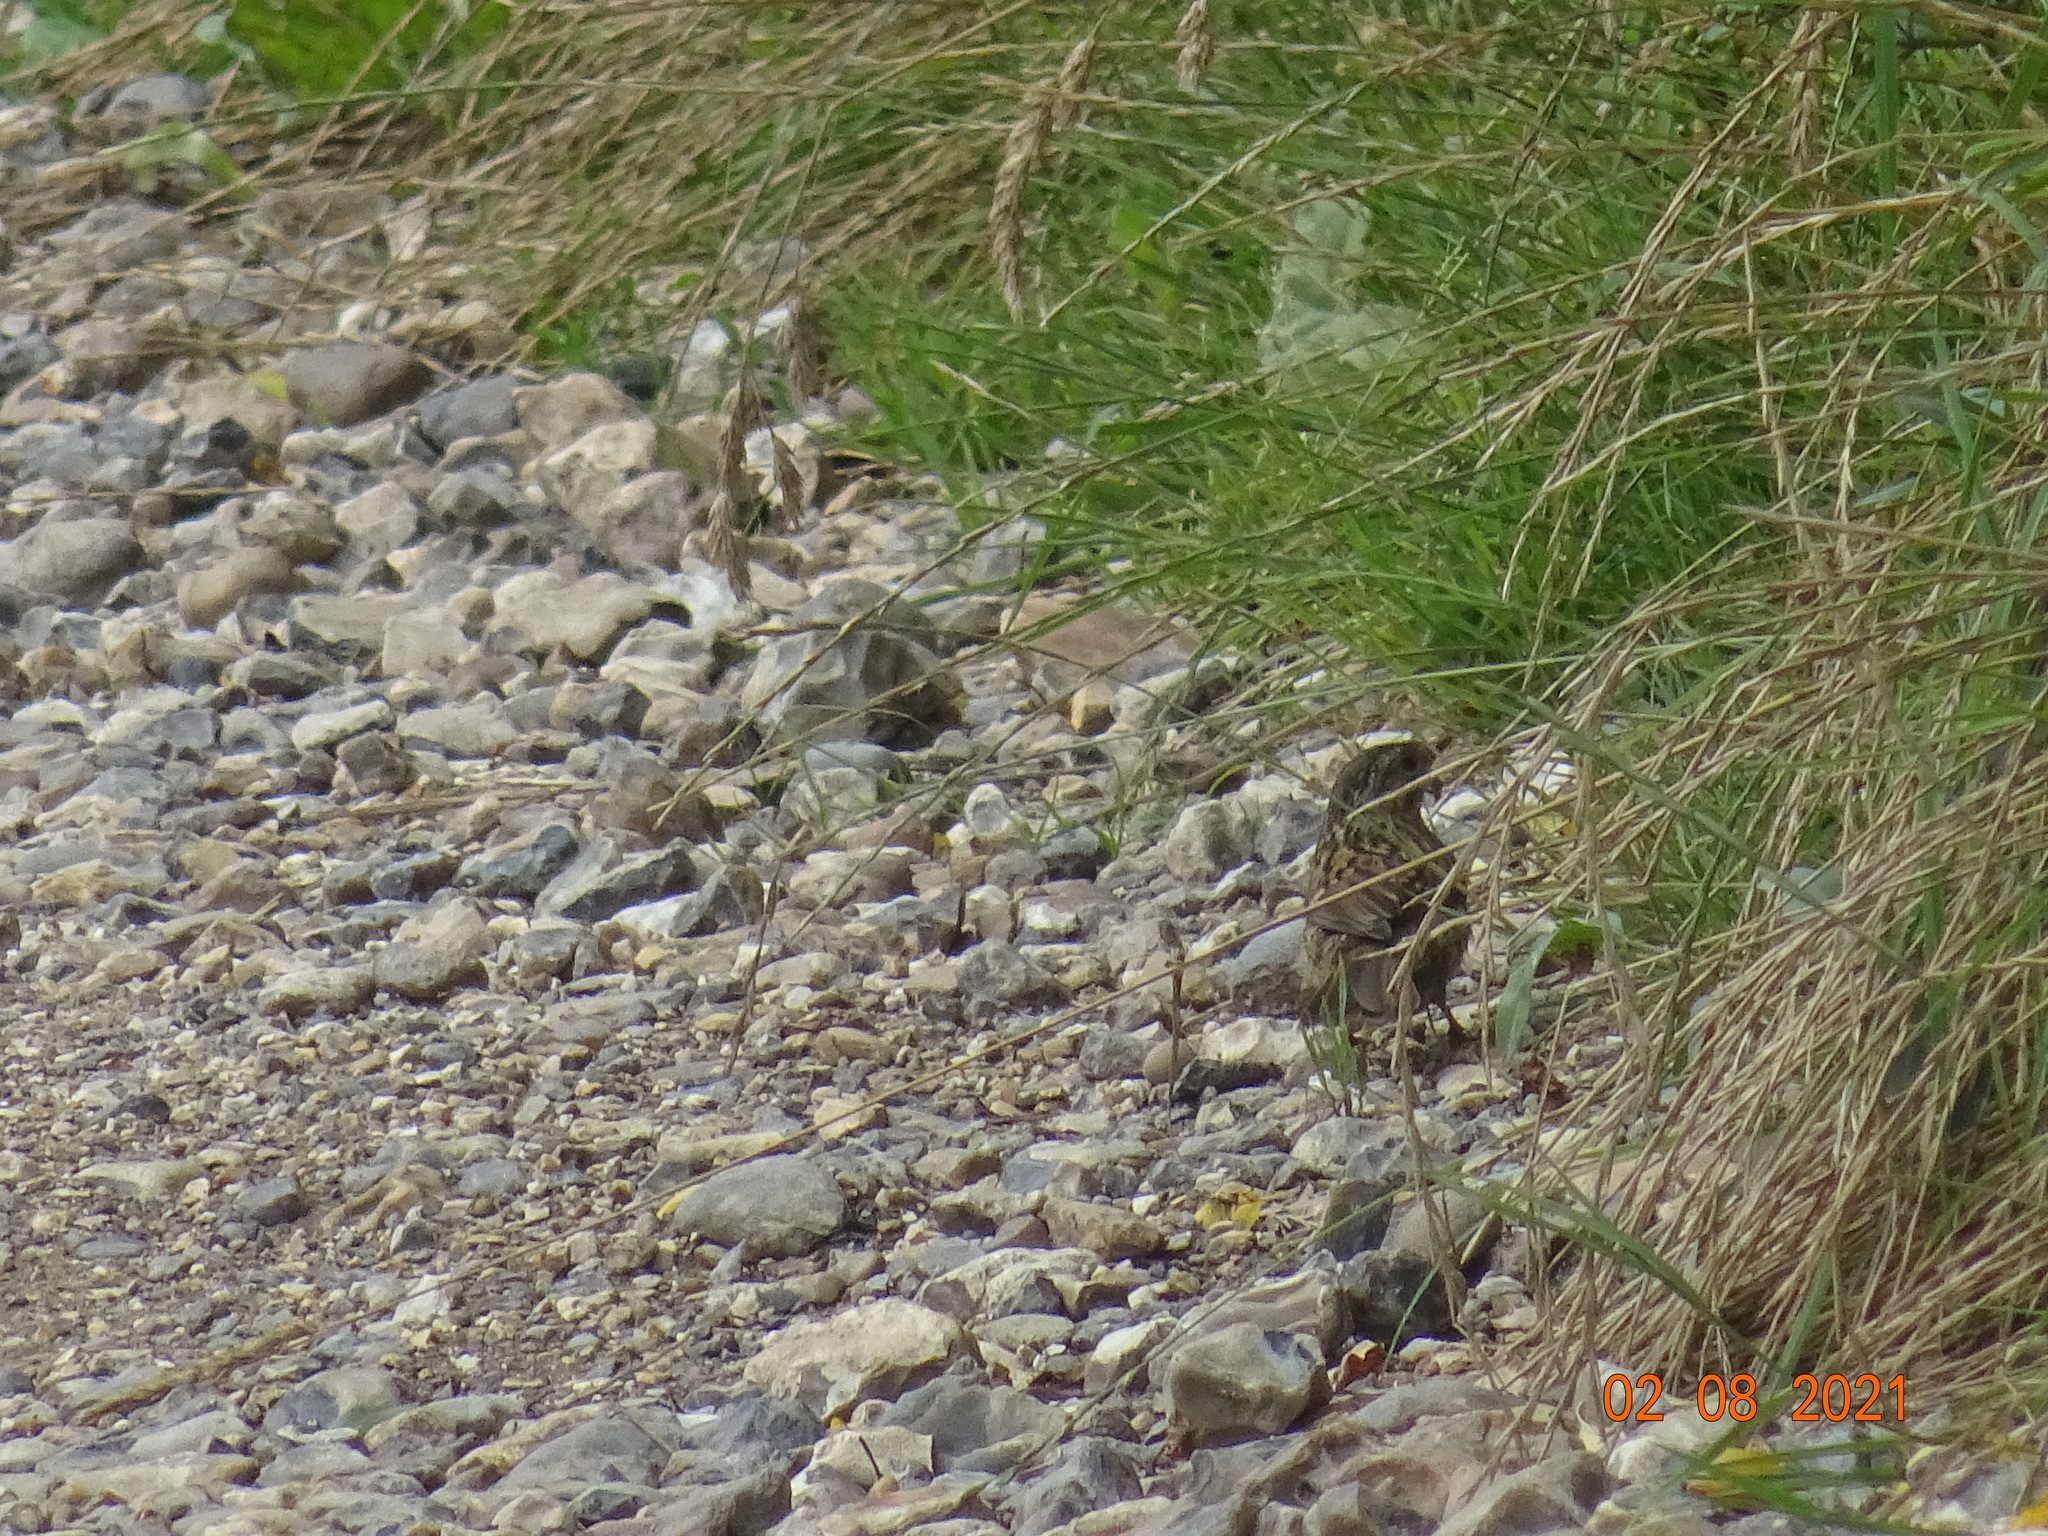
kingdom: Animalia
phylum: Chordata
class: Aves
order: Passeriformes
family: Prunellidae
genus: Prunella
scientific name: Prunella modularis
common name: Dunnock
